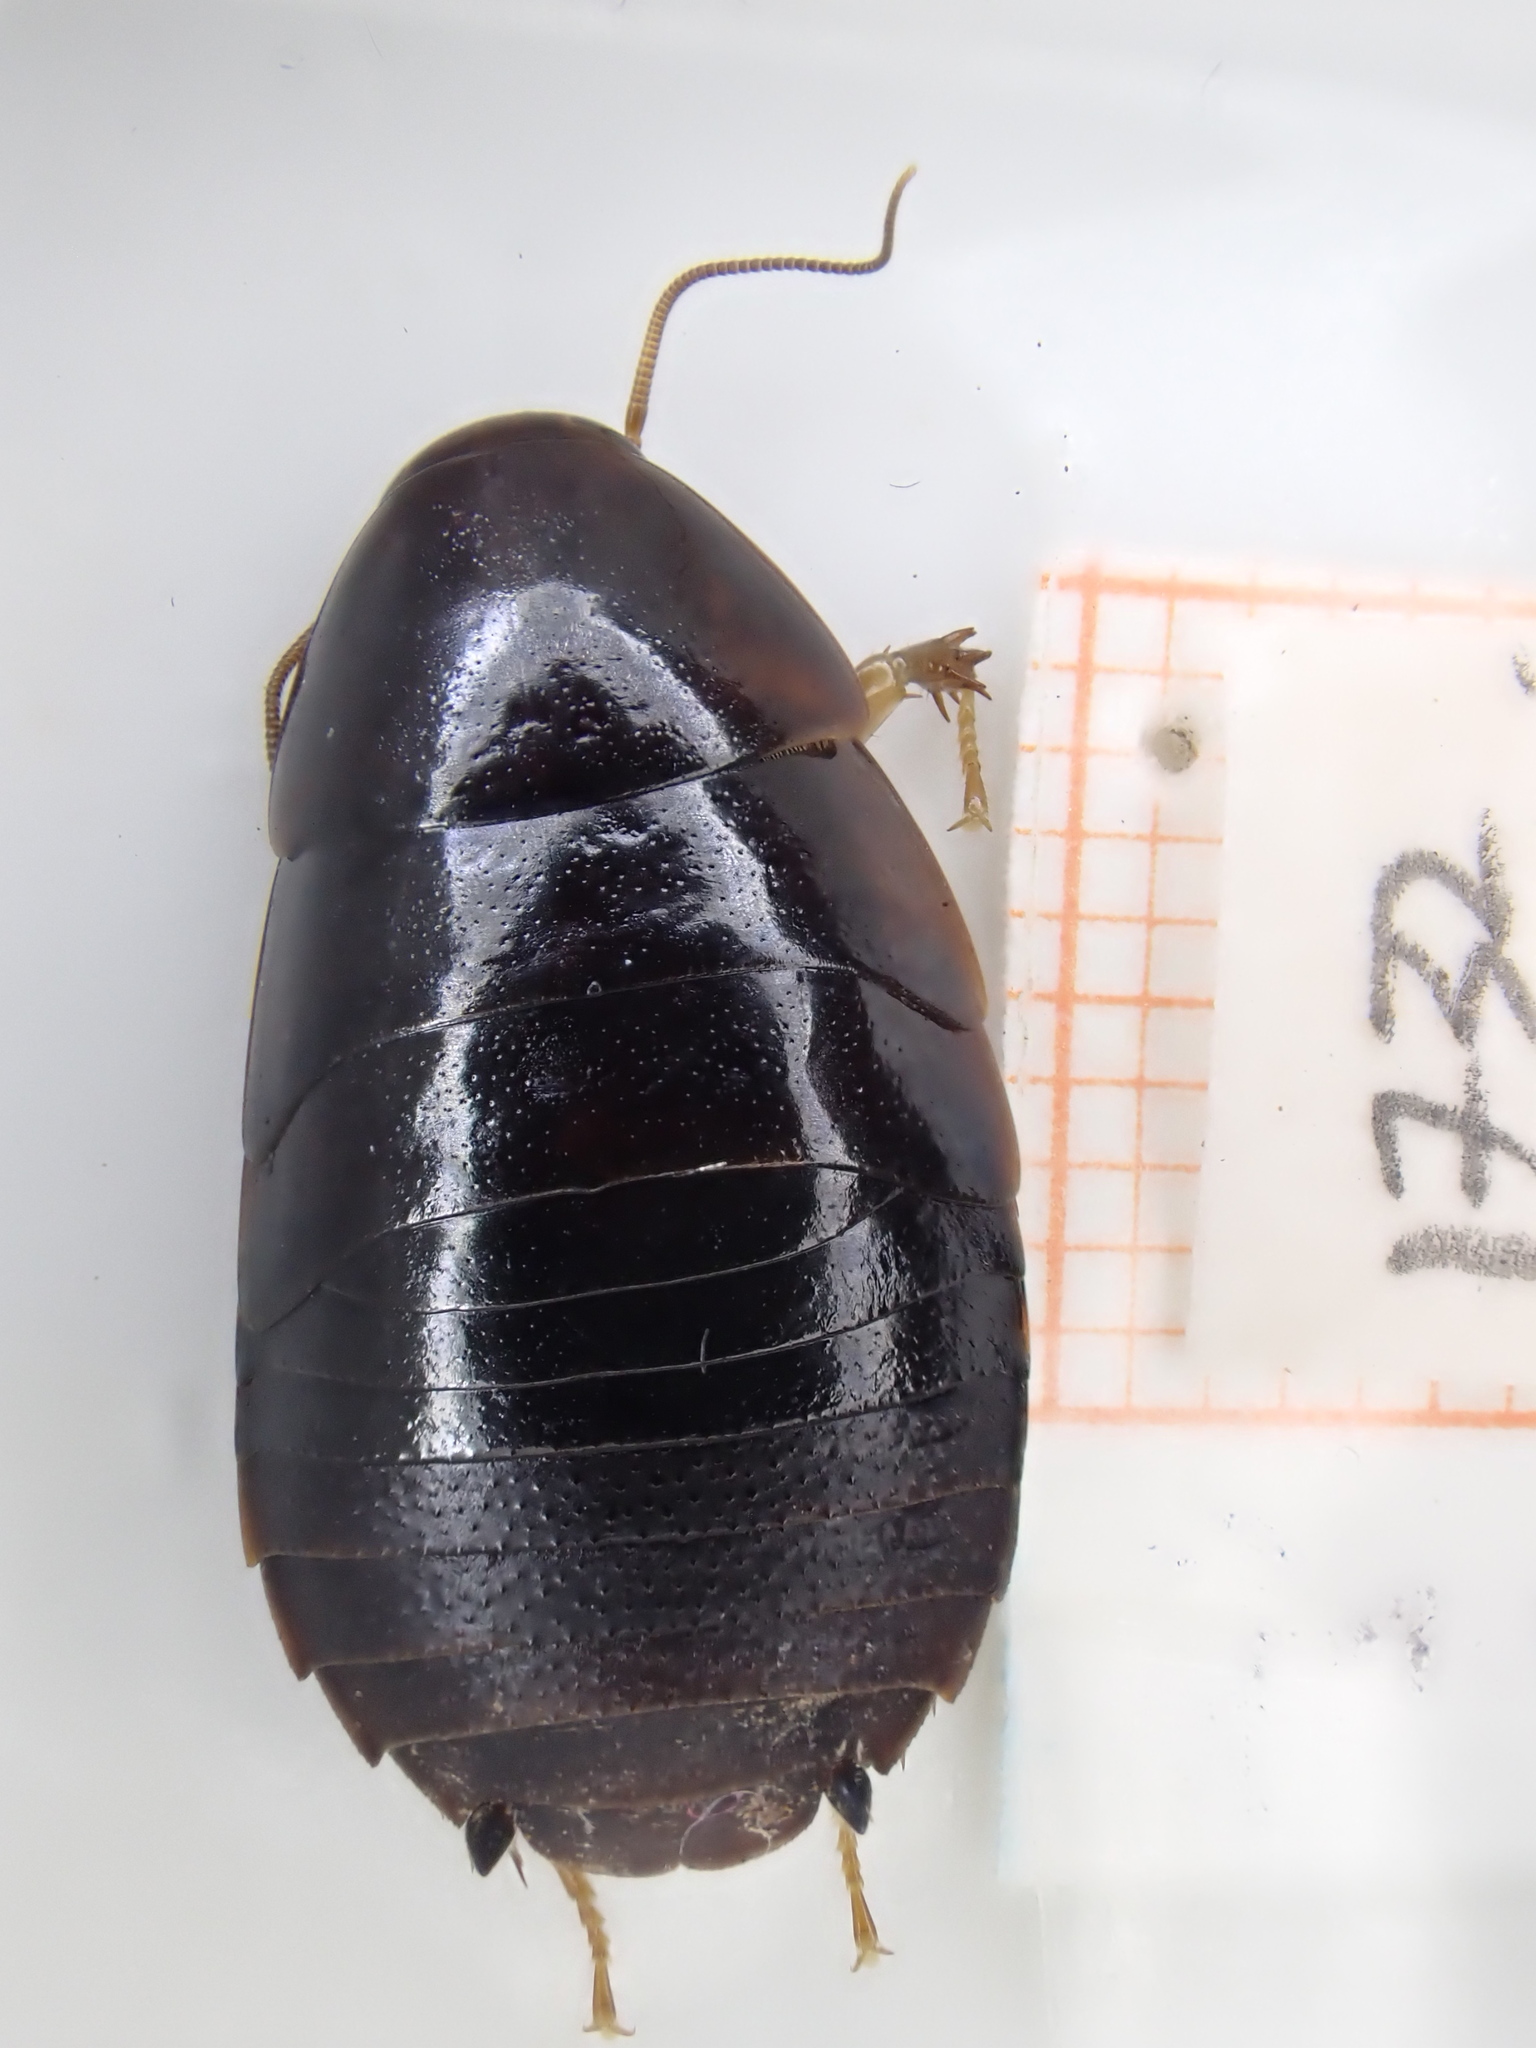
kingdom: Animalia
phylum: Arthropoda
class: Insecta
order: Blattodea
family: Blaberidae
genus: Pycnoscelus
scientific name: Pycnoscelus surinamensis
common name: Surinam cockroach
